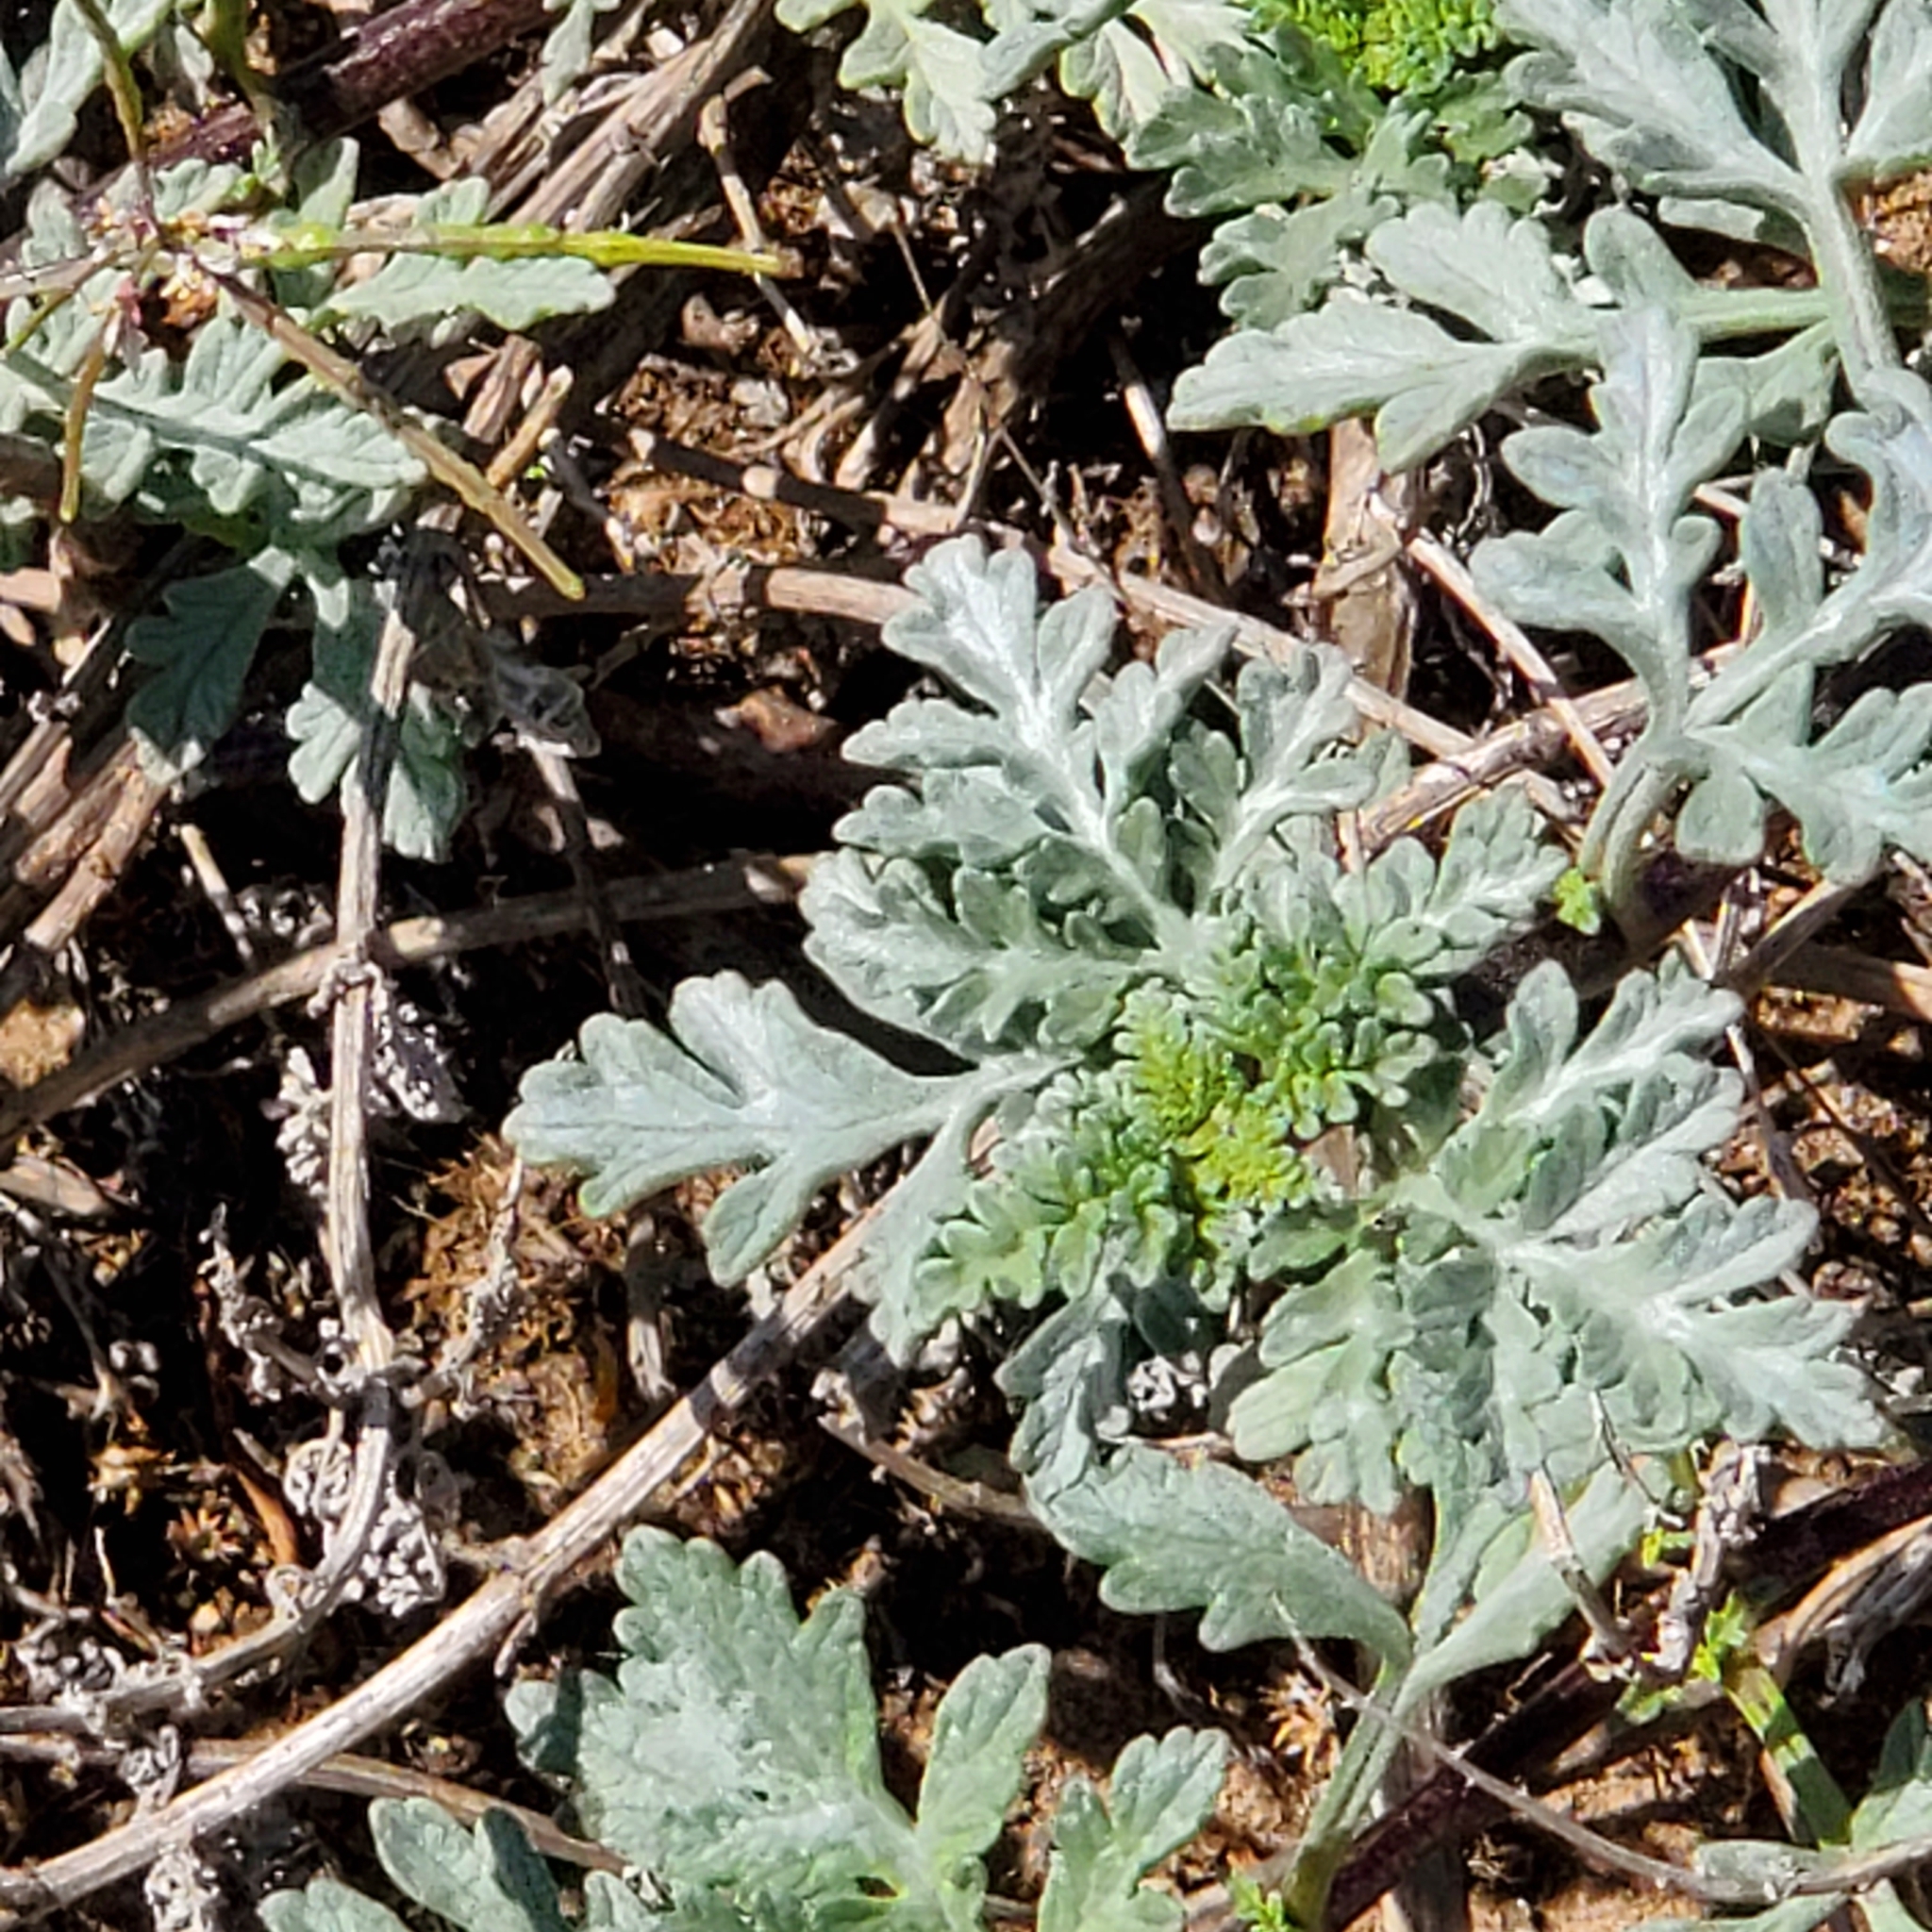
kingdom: Plantae
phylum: Tracheophyta
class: Magnoliopsida
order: Asterales
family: Asteraceae
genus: Ambrosia
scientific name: Ambrosia chamissonis
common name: Beachbur
